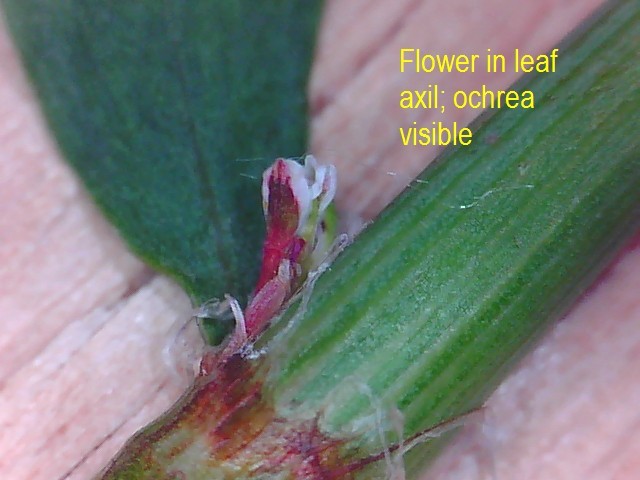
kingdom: Plantae
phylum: Tracheophyta
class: Magnoliopsida
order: Caryophyllales
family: Polygonaceae
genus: Polygonum
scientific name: Polygonum arenastrum
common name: Equal-leaved knotgrass
